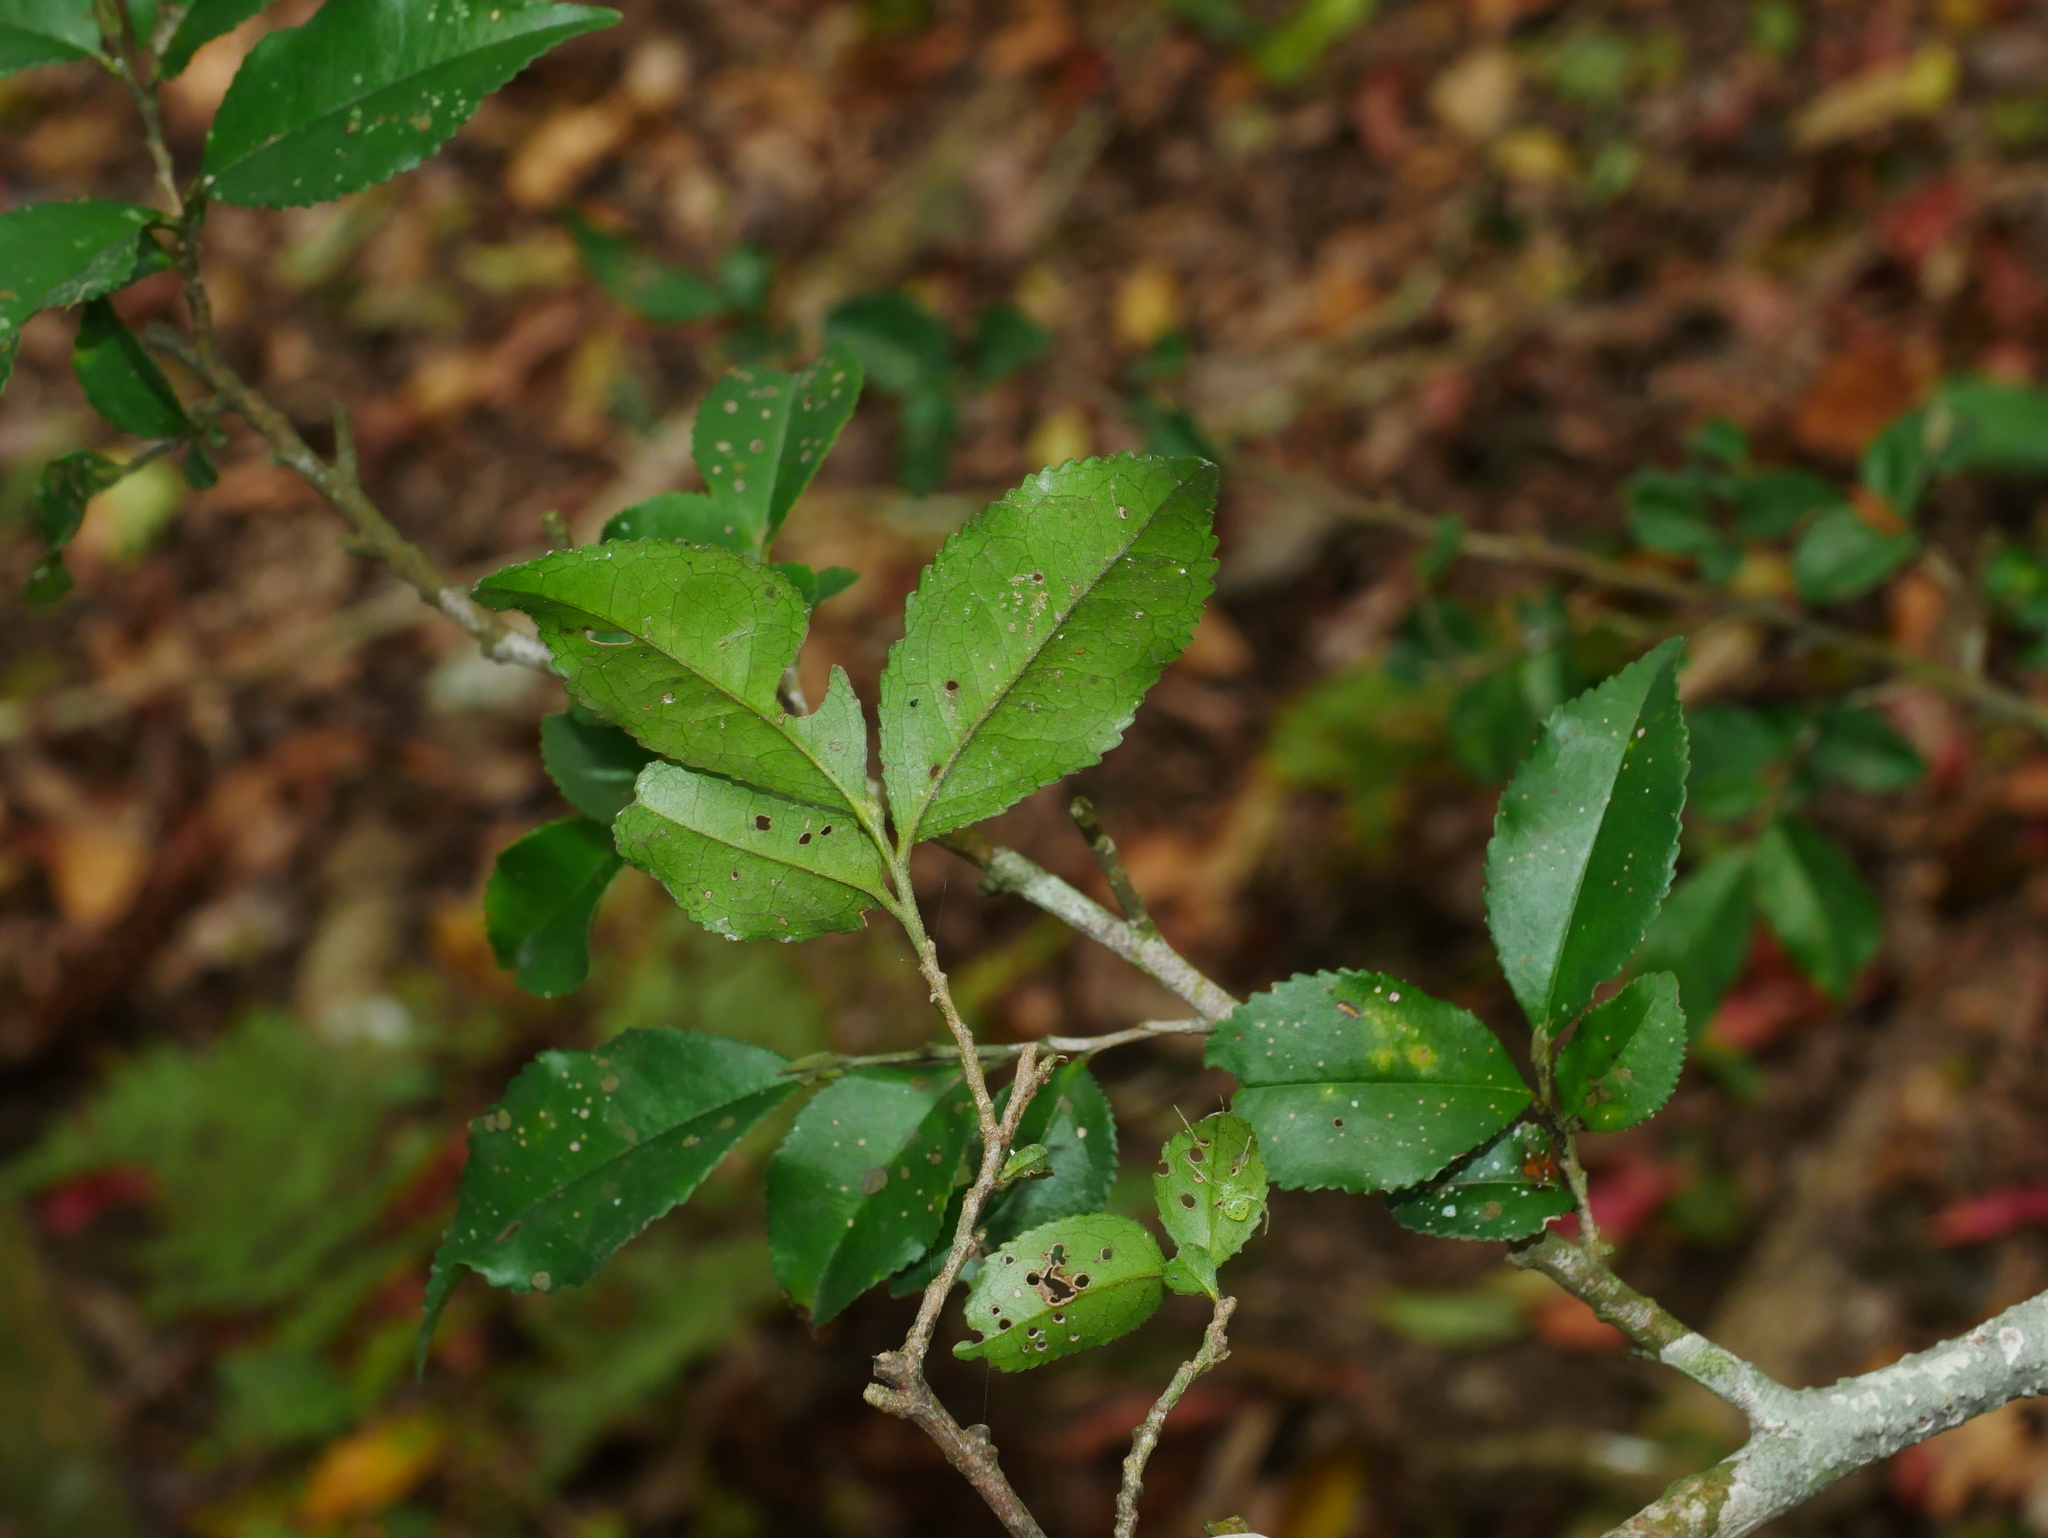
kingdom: Plantae
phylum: Tracheophyta
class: Magnoliopsida
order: Ericales
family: Pentaphylacaceae
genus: Eurya
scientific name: Eurya leptophylla
